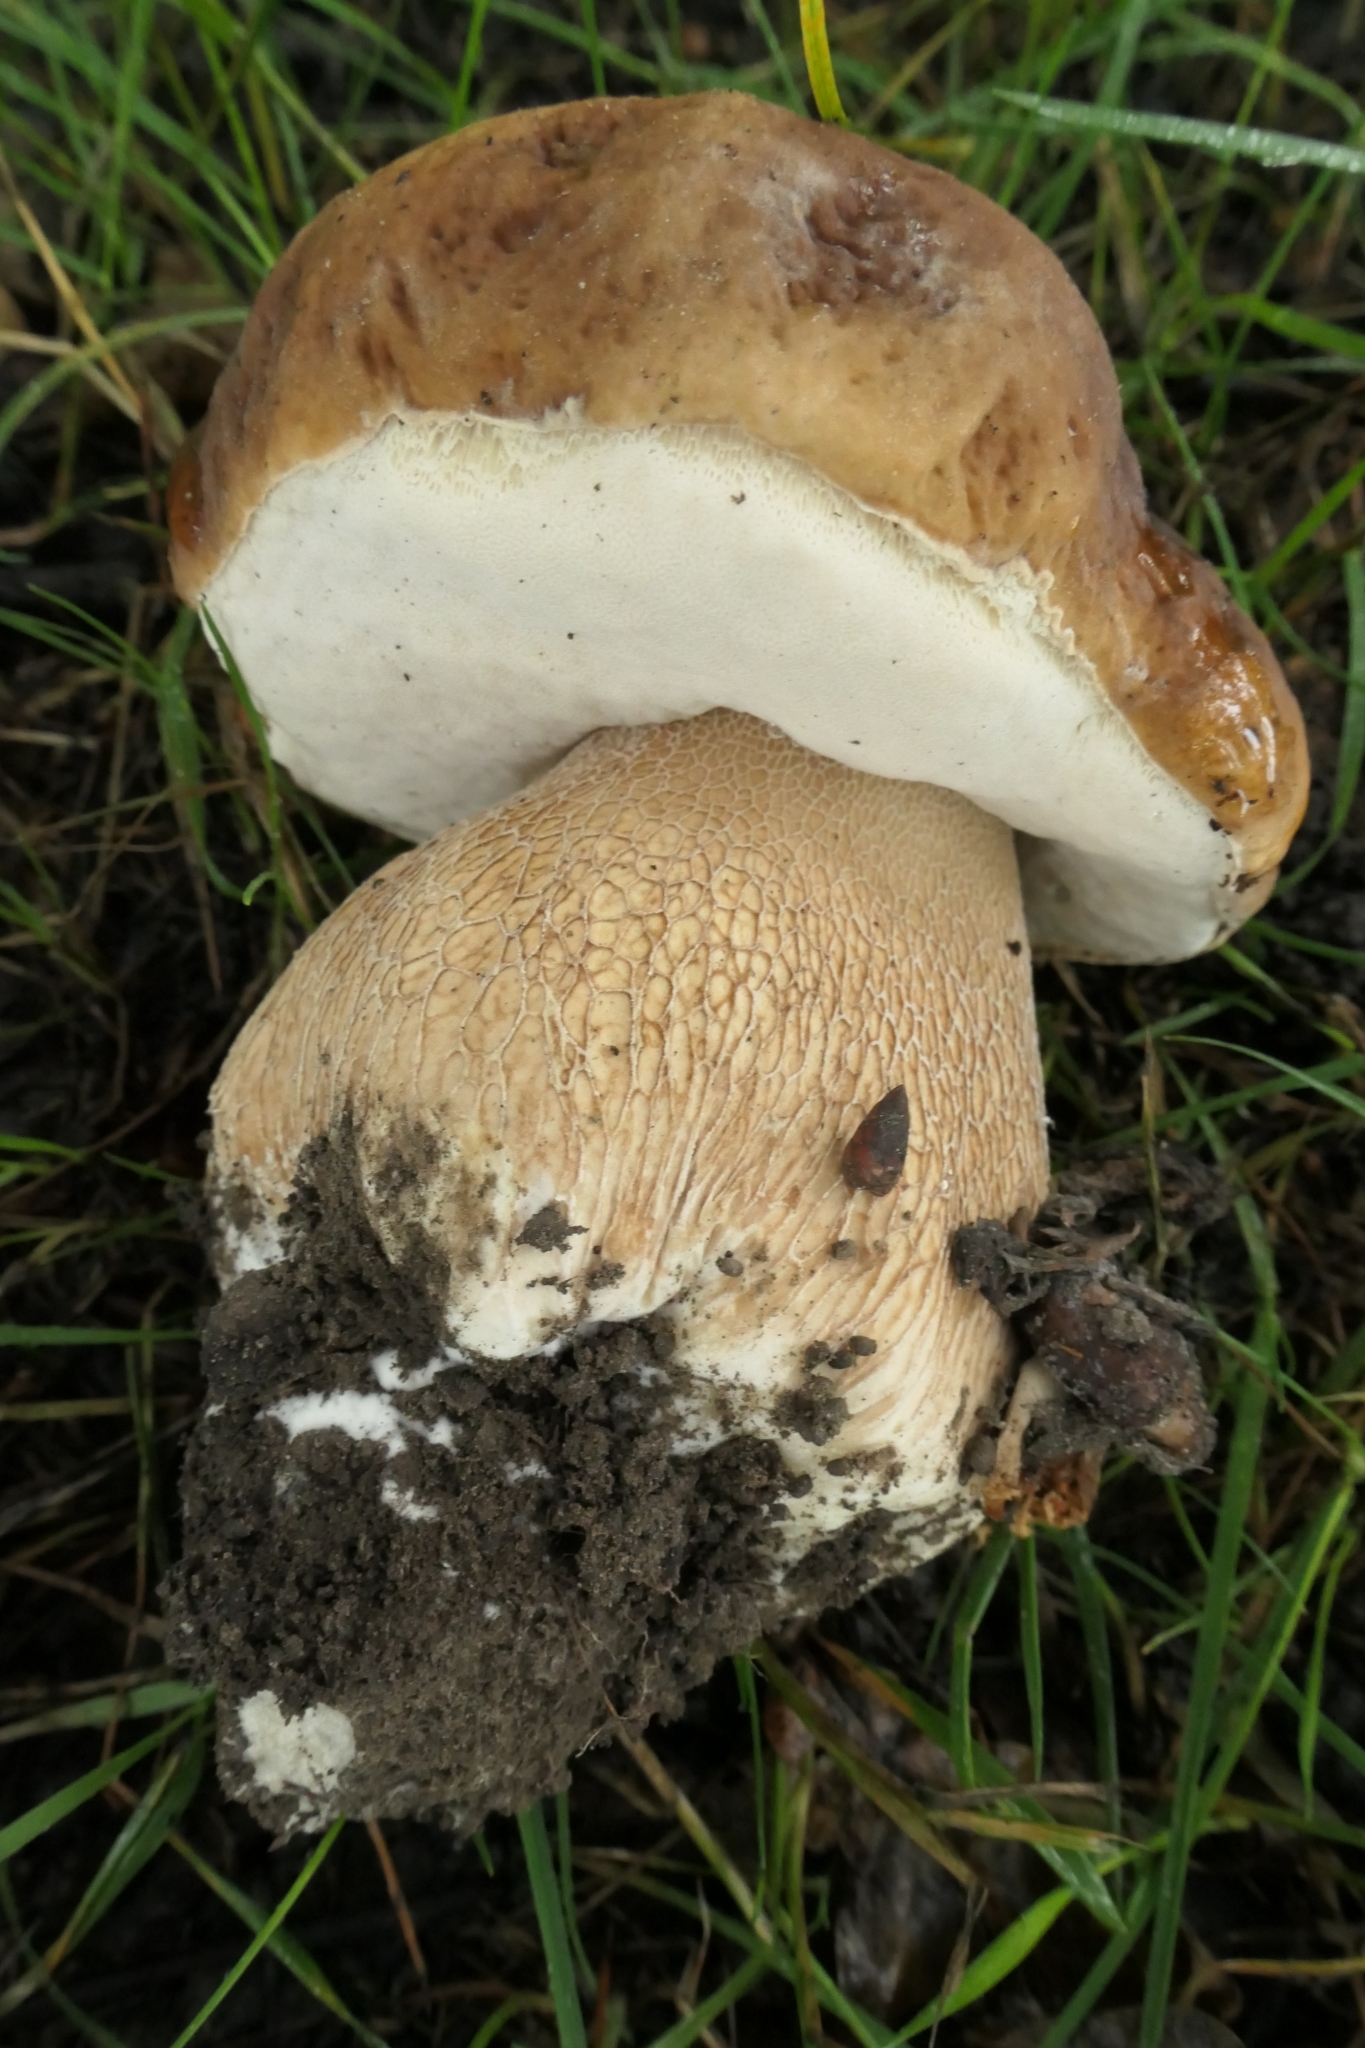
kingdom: Fungi
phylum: Basidiomycota
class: Agaricomycetes
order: Boletales
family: Boletaceae
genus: Boletus
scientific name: Boletus edulis
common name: Cep
